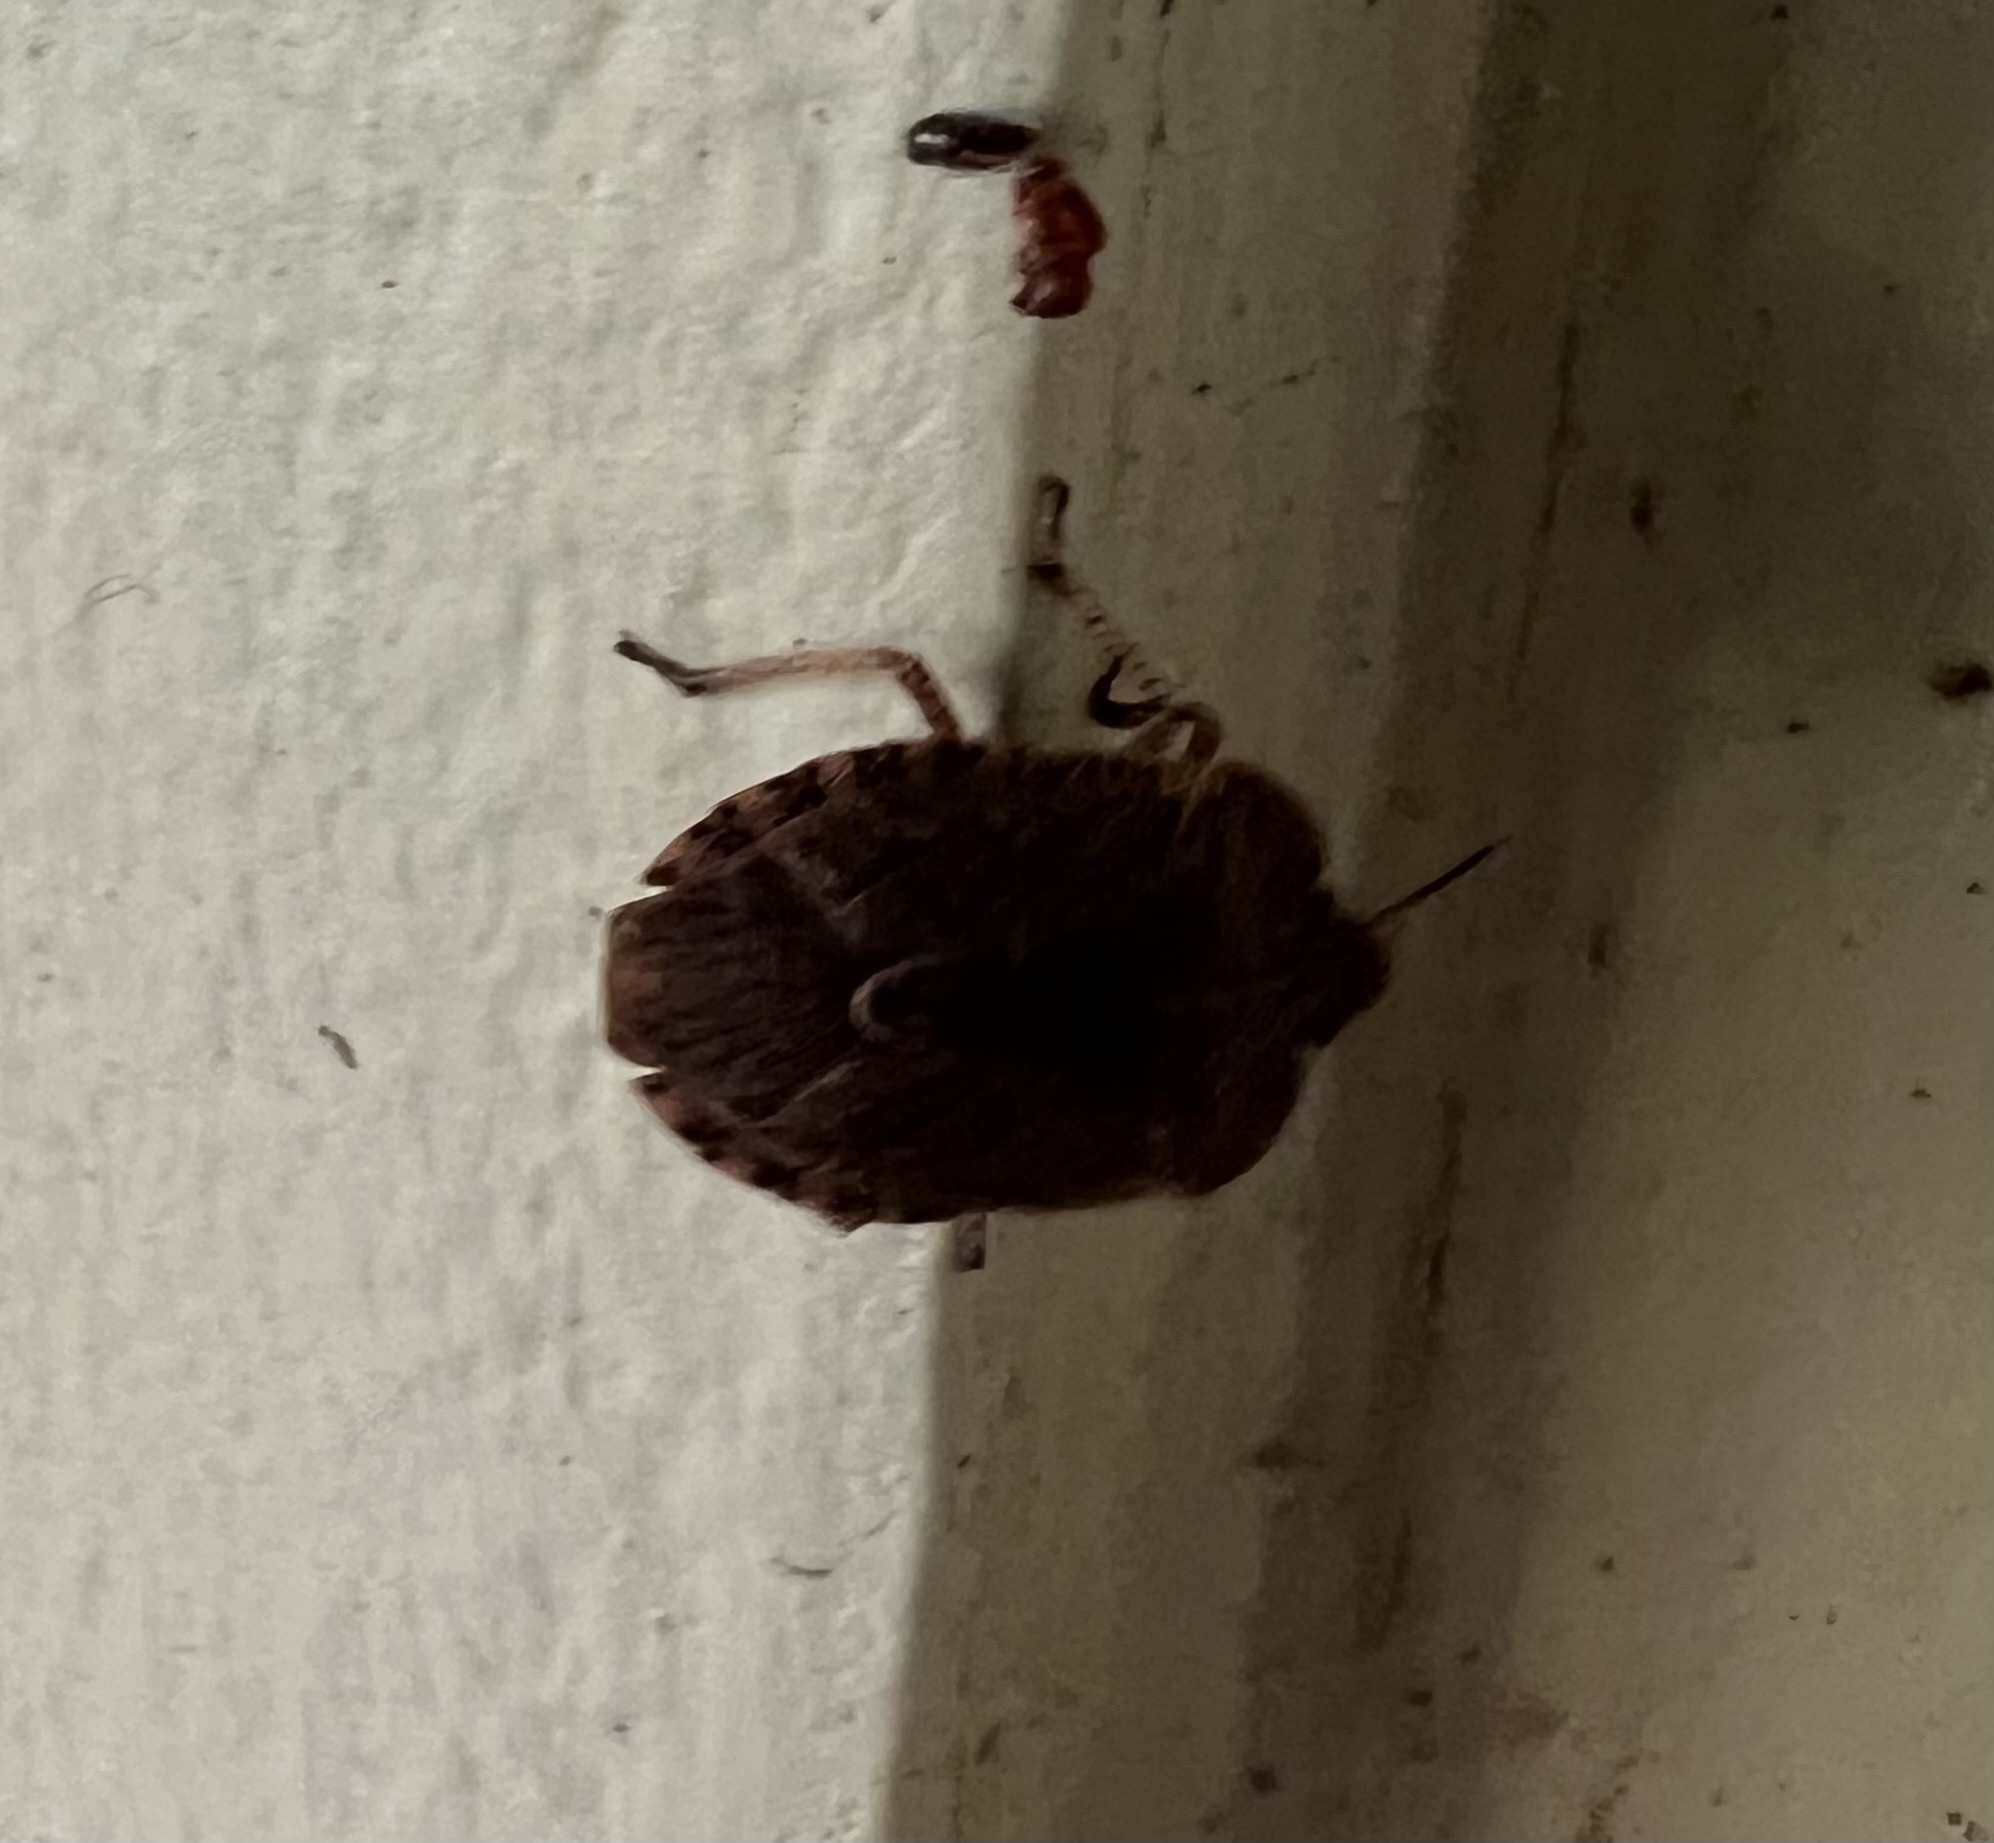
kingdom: Animalia
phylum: Arthropoda
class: Insecta
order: Hemiptera
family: Pentatomidae
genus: Menecles
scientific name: Menecles insertus
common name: Elf shoe stink bug
